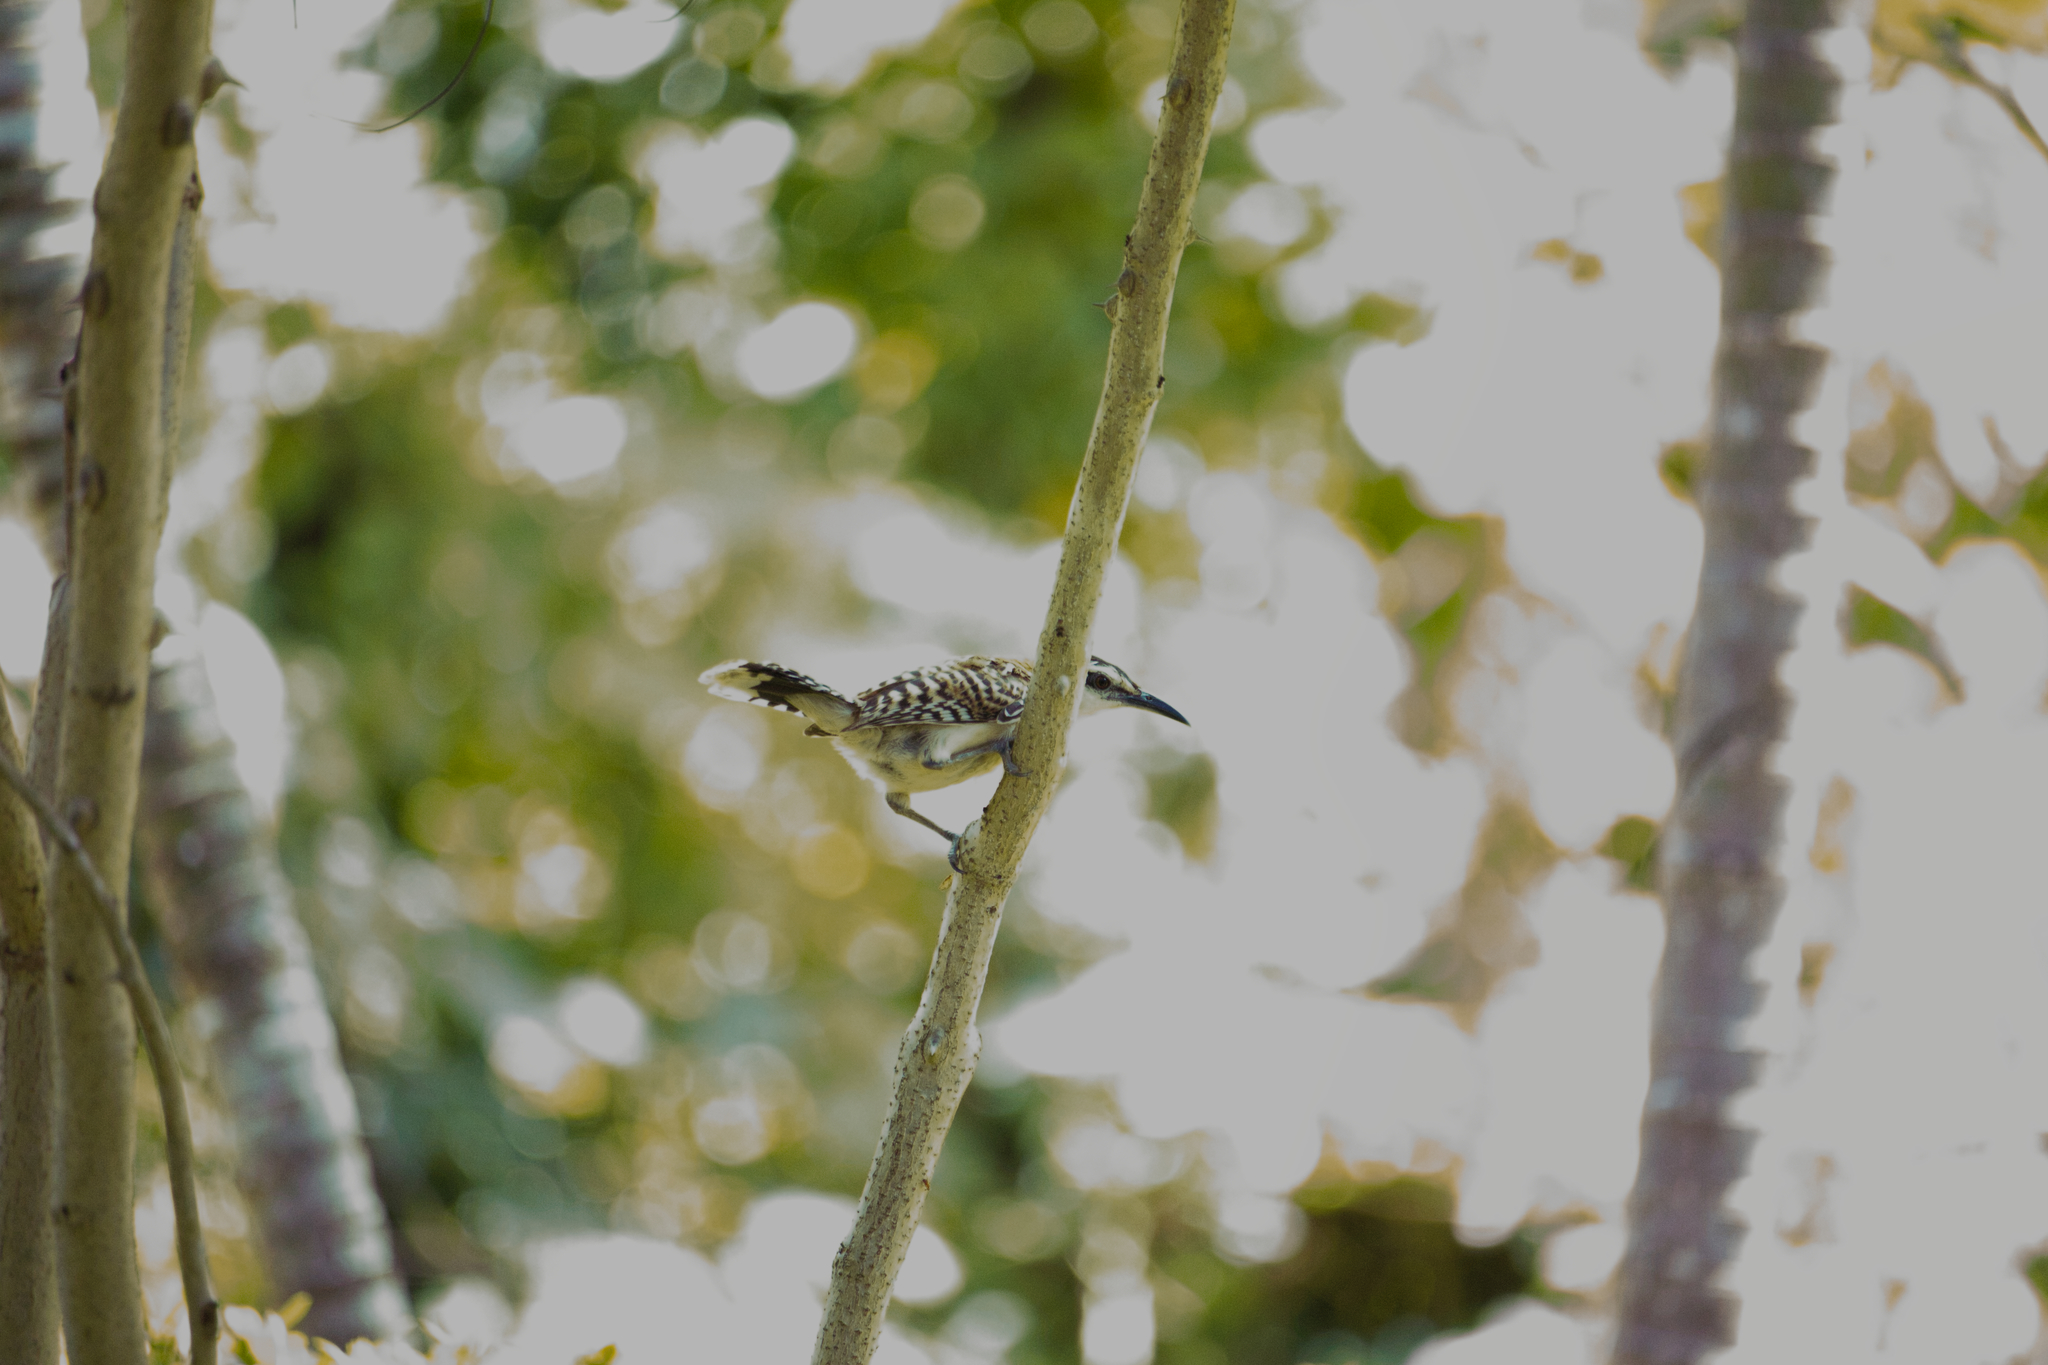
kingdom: Animalia
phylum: Chordata
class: Aves
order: Passeriformes
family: Troglodytidae
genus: Campylorhynchus
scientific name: Campylorhynchus rufinucha
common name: Rufous-naped wren
